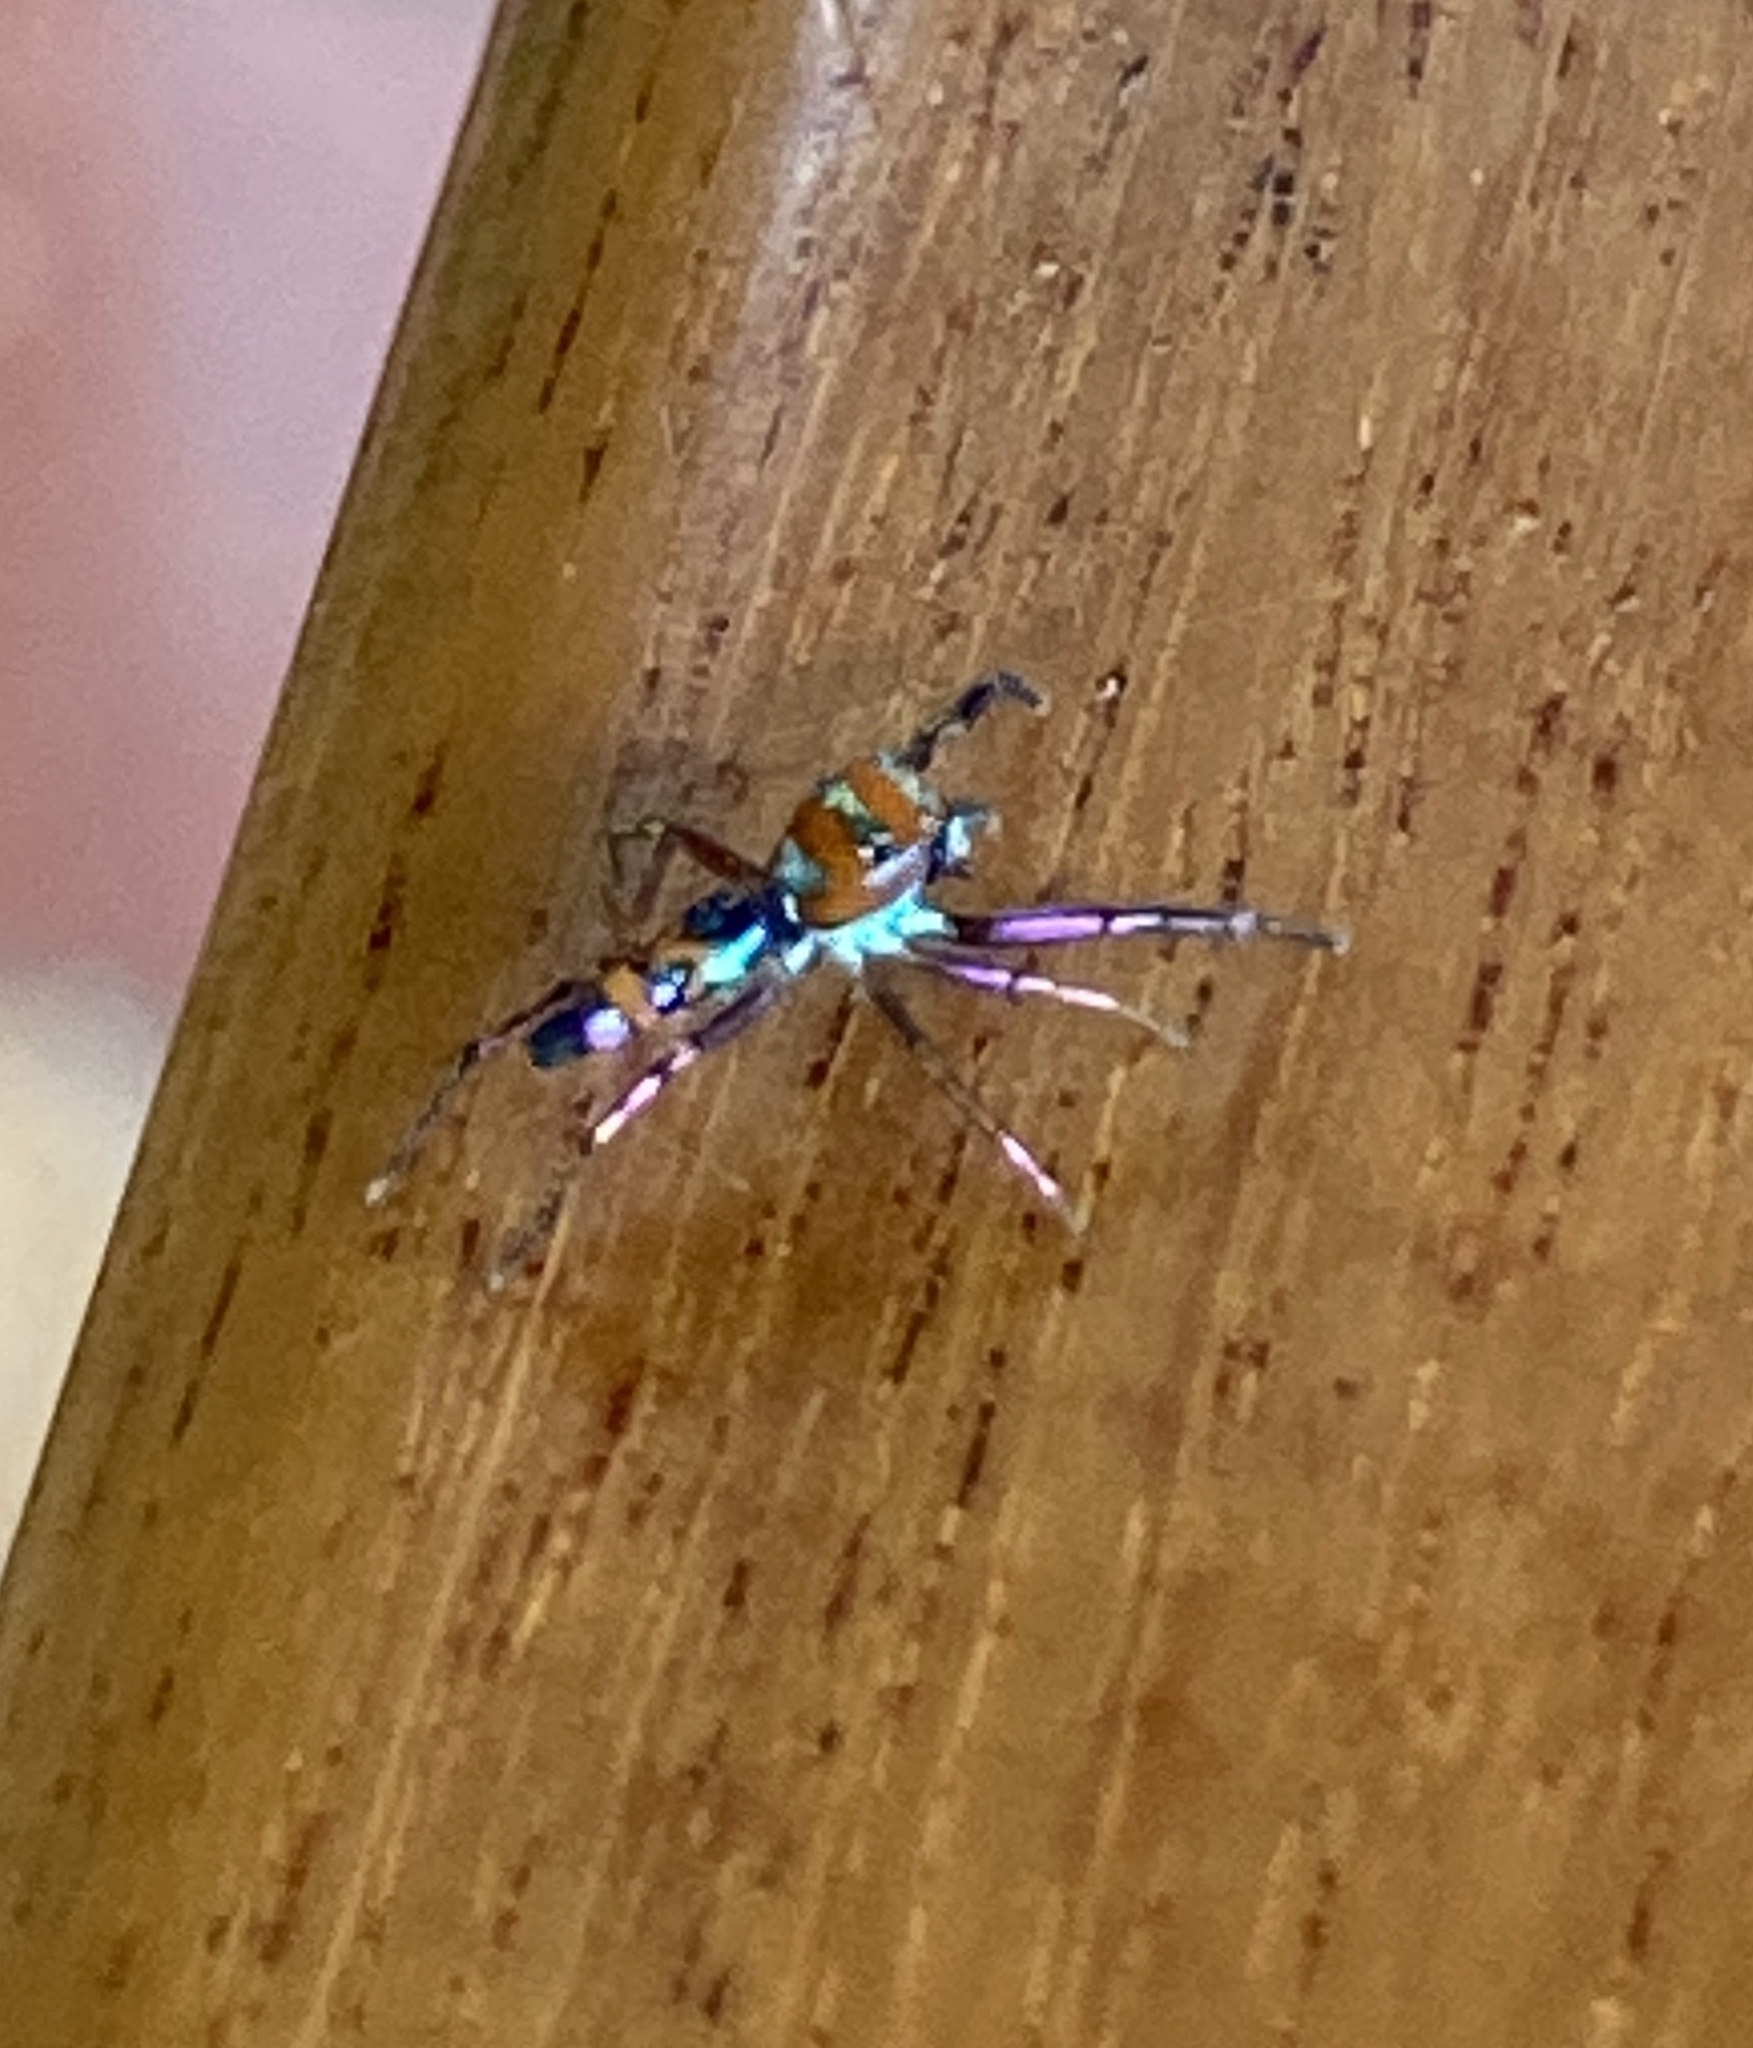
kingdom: Animalia
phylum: Arthropoda
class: Arachnida
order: Araneae
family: Salticidae
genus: Chrysilla
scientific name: Chrysilla volupe
